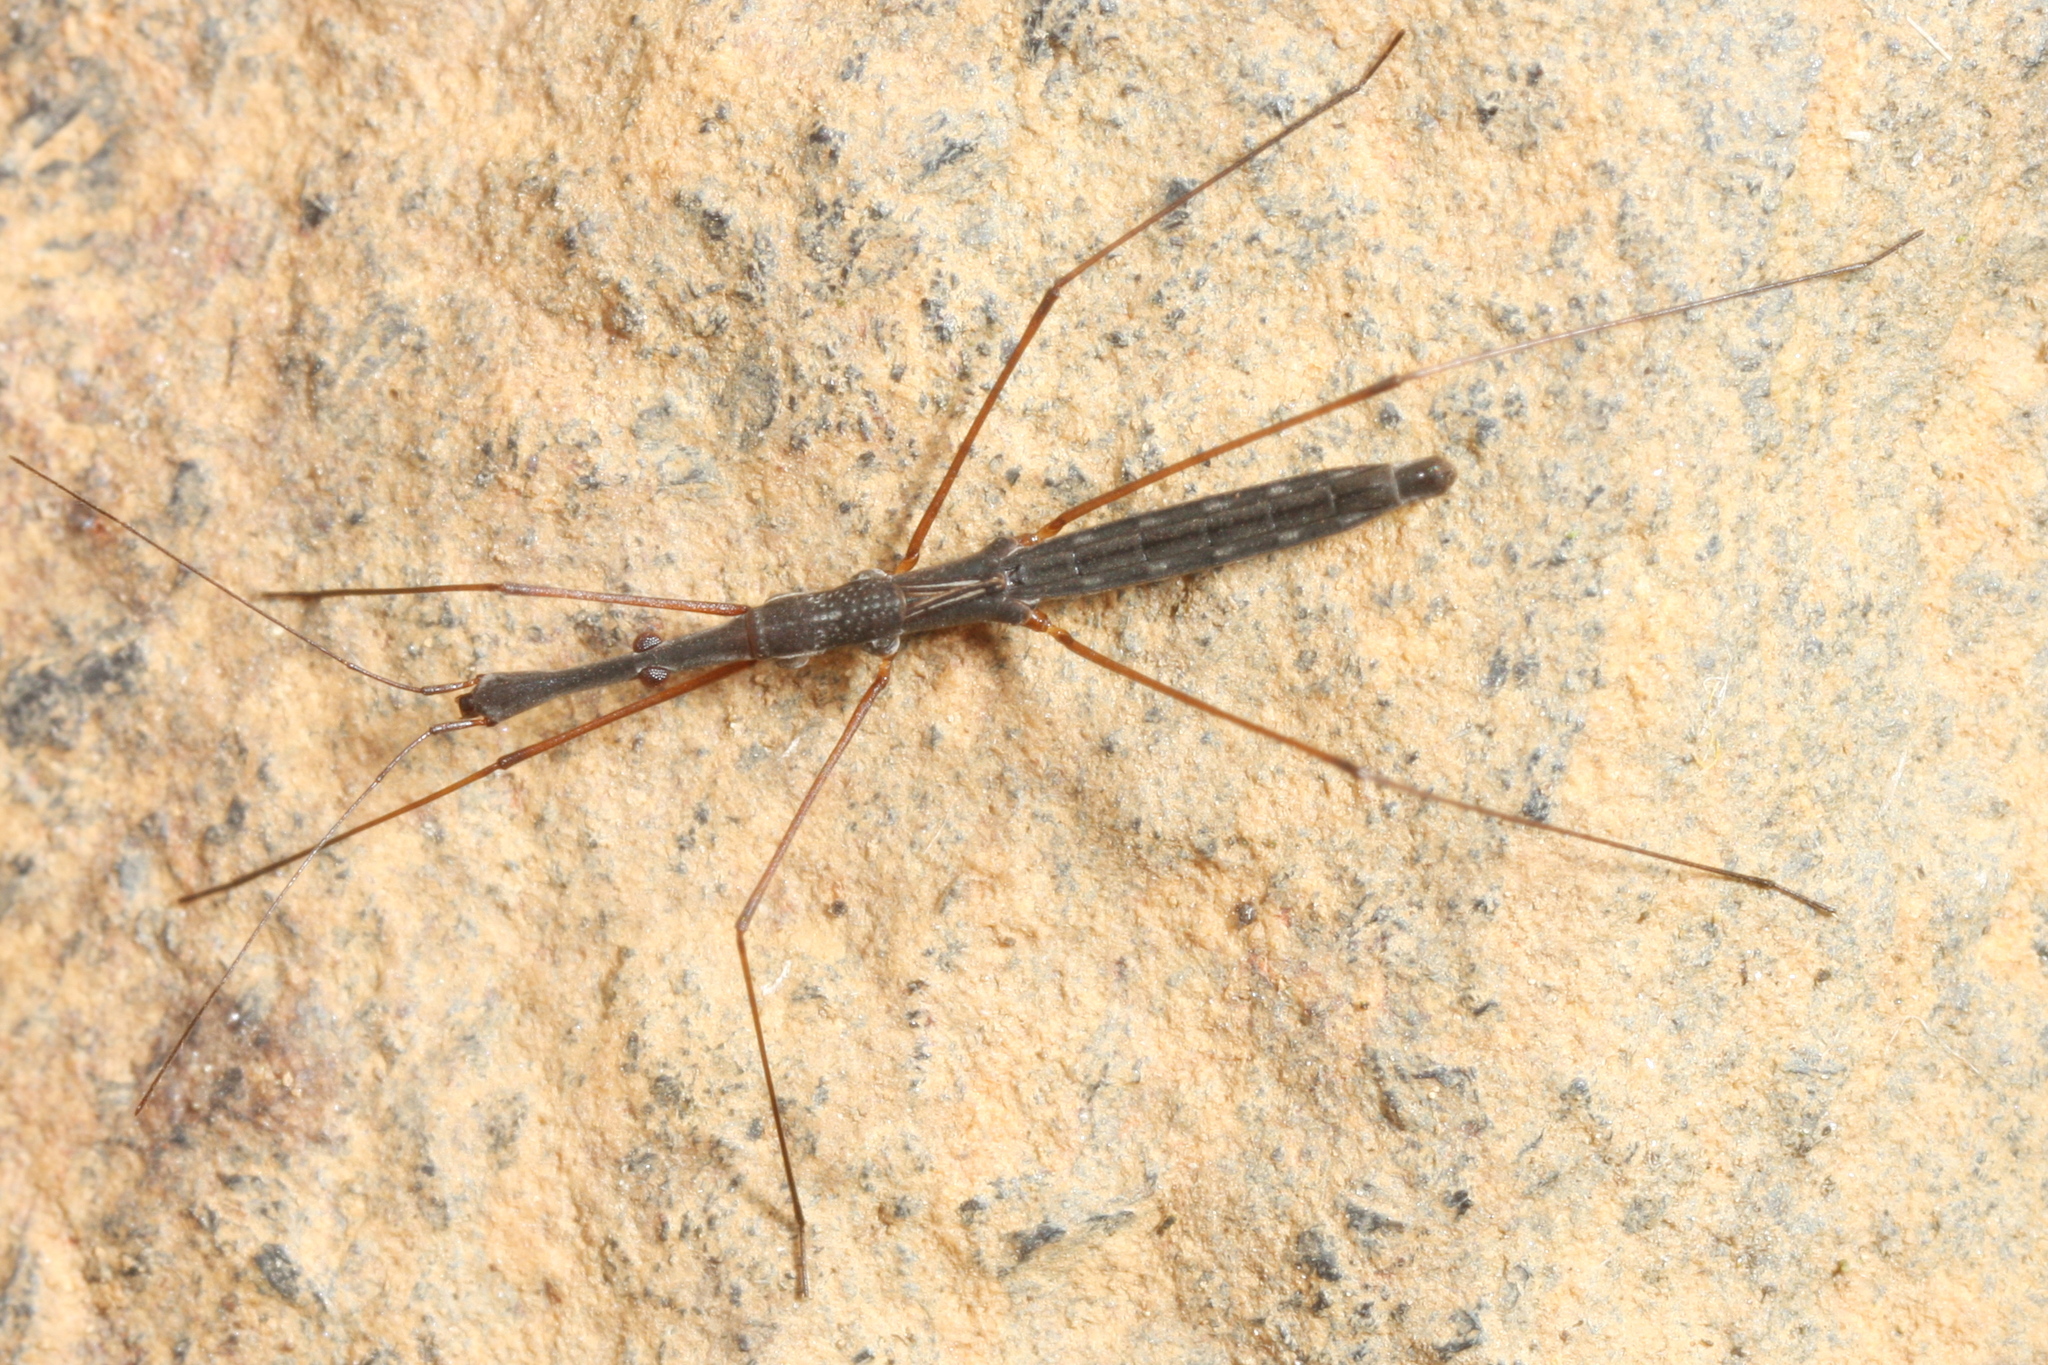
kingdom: Animalia
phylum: Arthropoda
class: Insecta
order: Hemiptera
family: Hydrometridae
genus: Hydrometra
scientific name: Hydrometra stagnorum
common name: Water measurer
